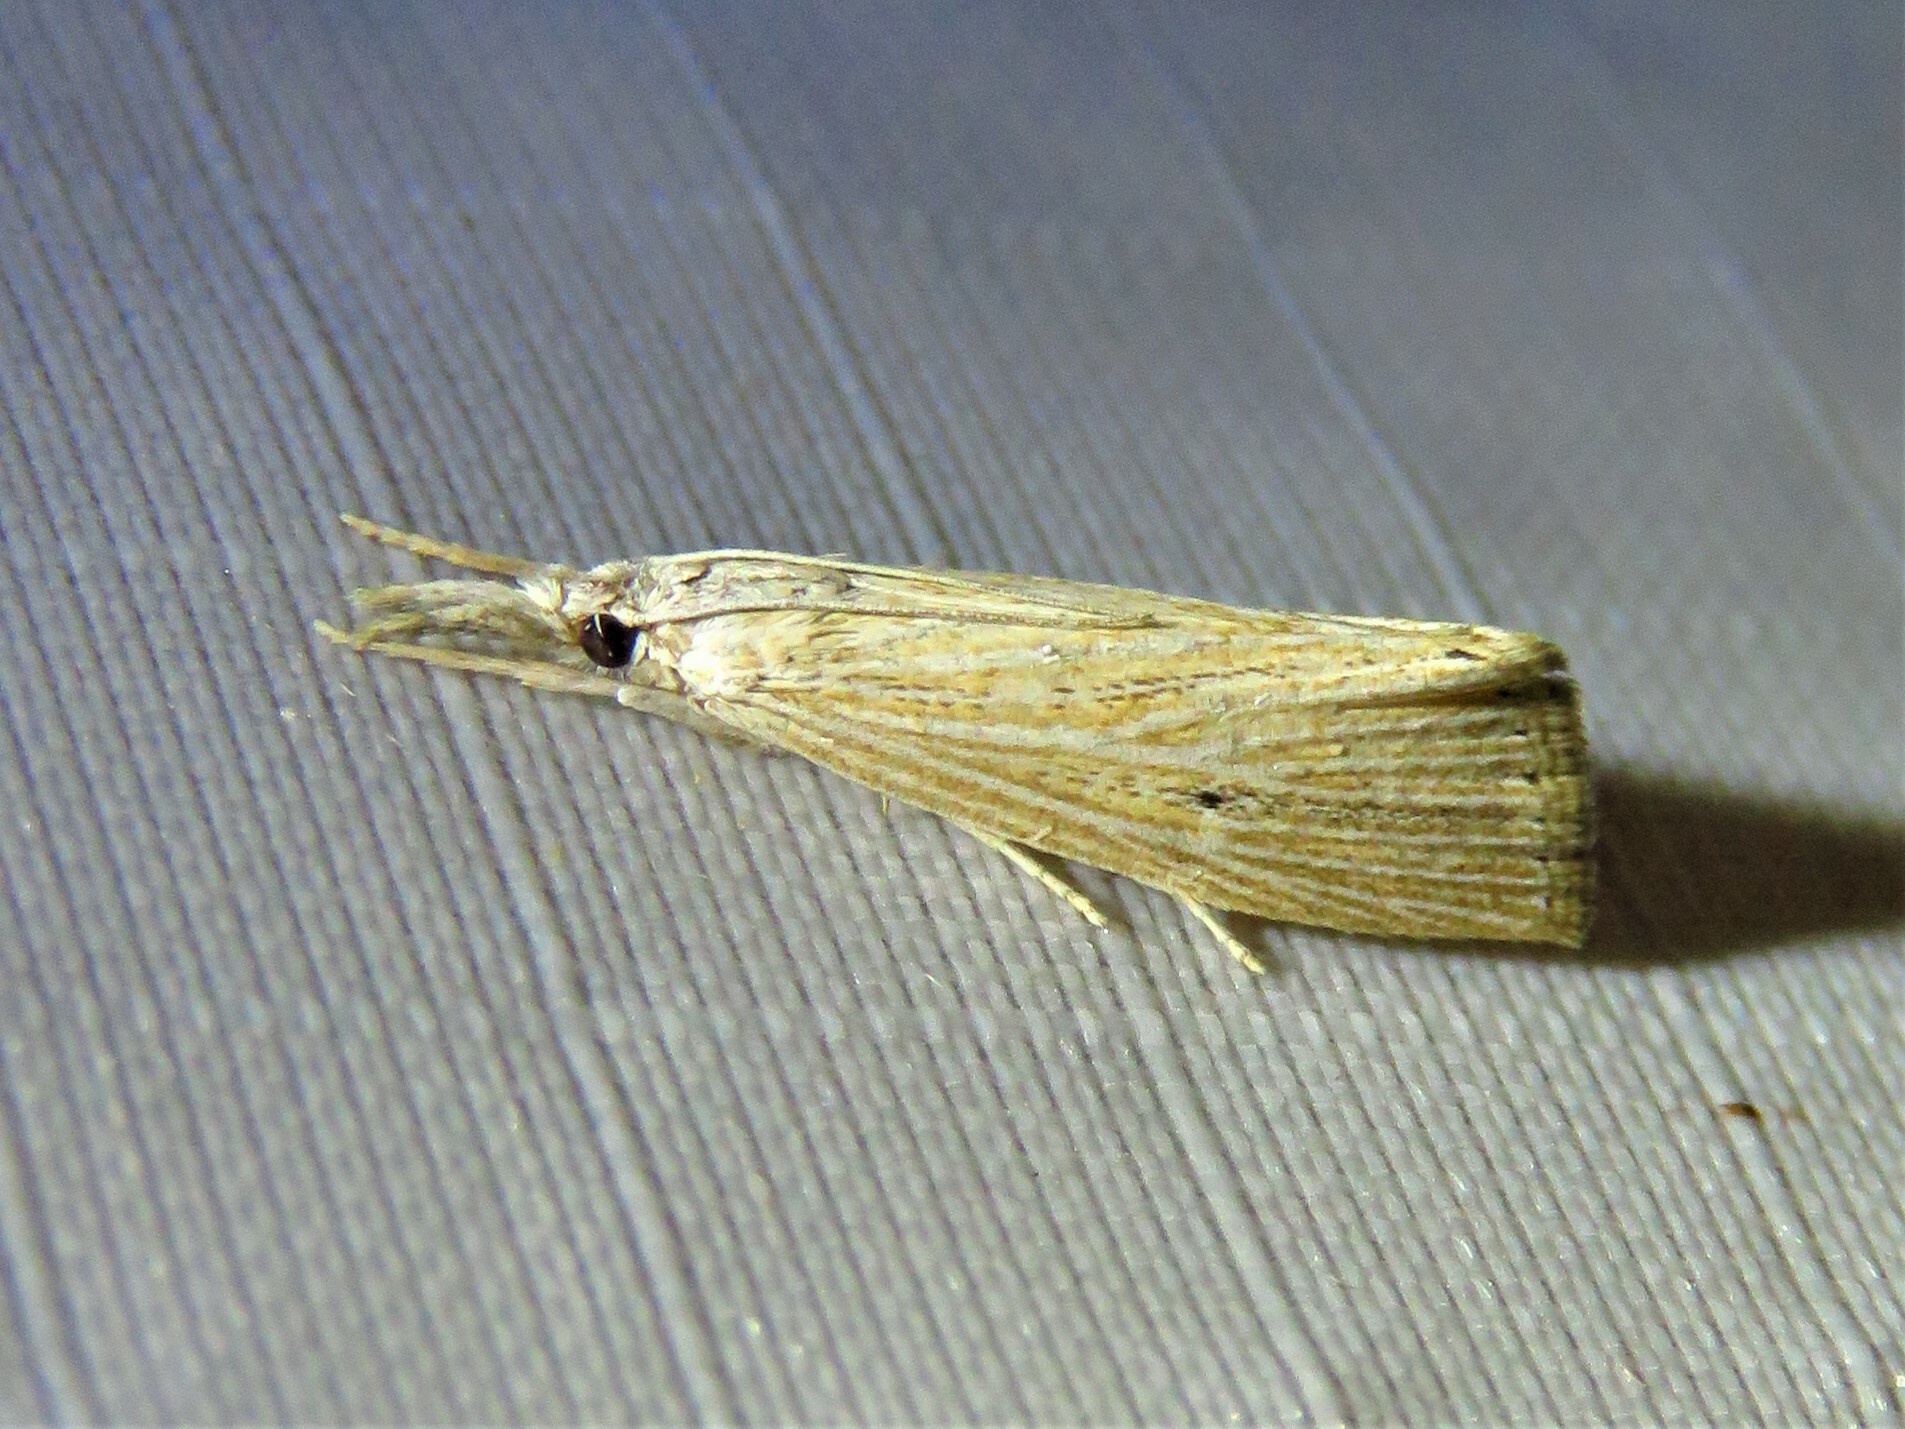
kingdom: Animalia
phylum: Arthropoda
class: Insecta
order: Lepidoptera
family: Crambidae
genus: Diatraea
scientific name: Diatraea evanescens
